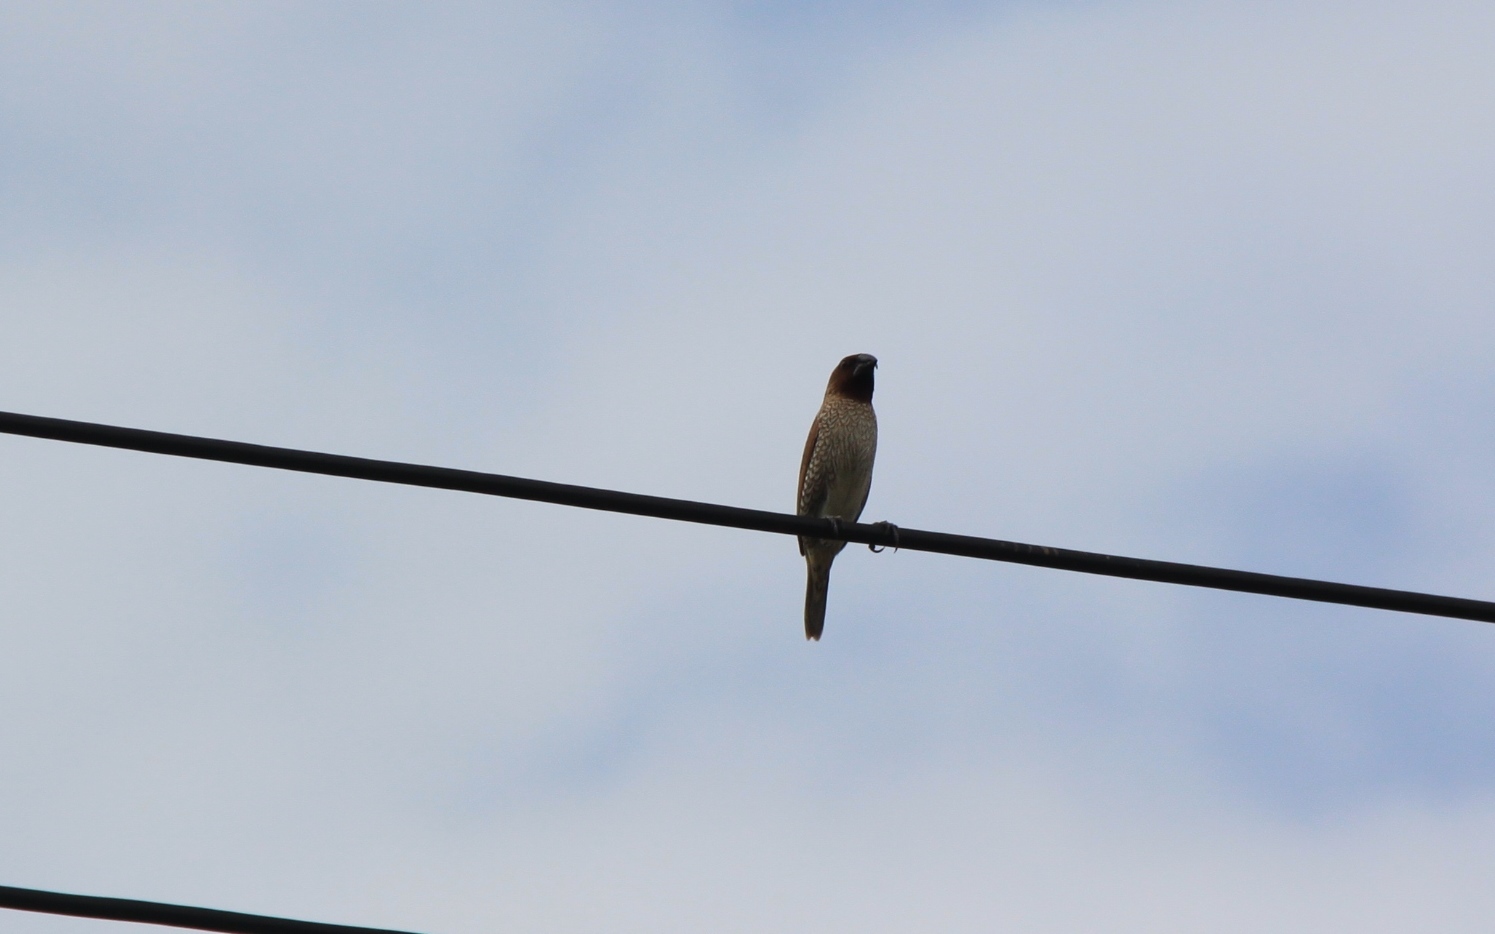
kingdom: Animalia
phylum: Chordata
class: Aves
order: Passeriformes
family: Estrildidae
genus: Lonchura
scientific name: Lonchura punctulata
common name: Scaly-breasted munia
